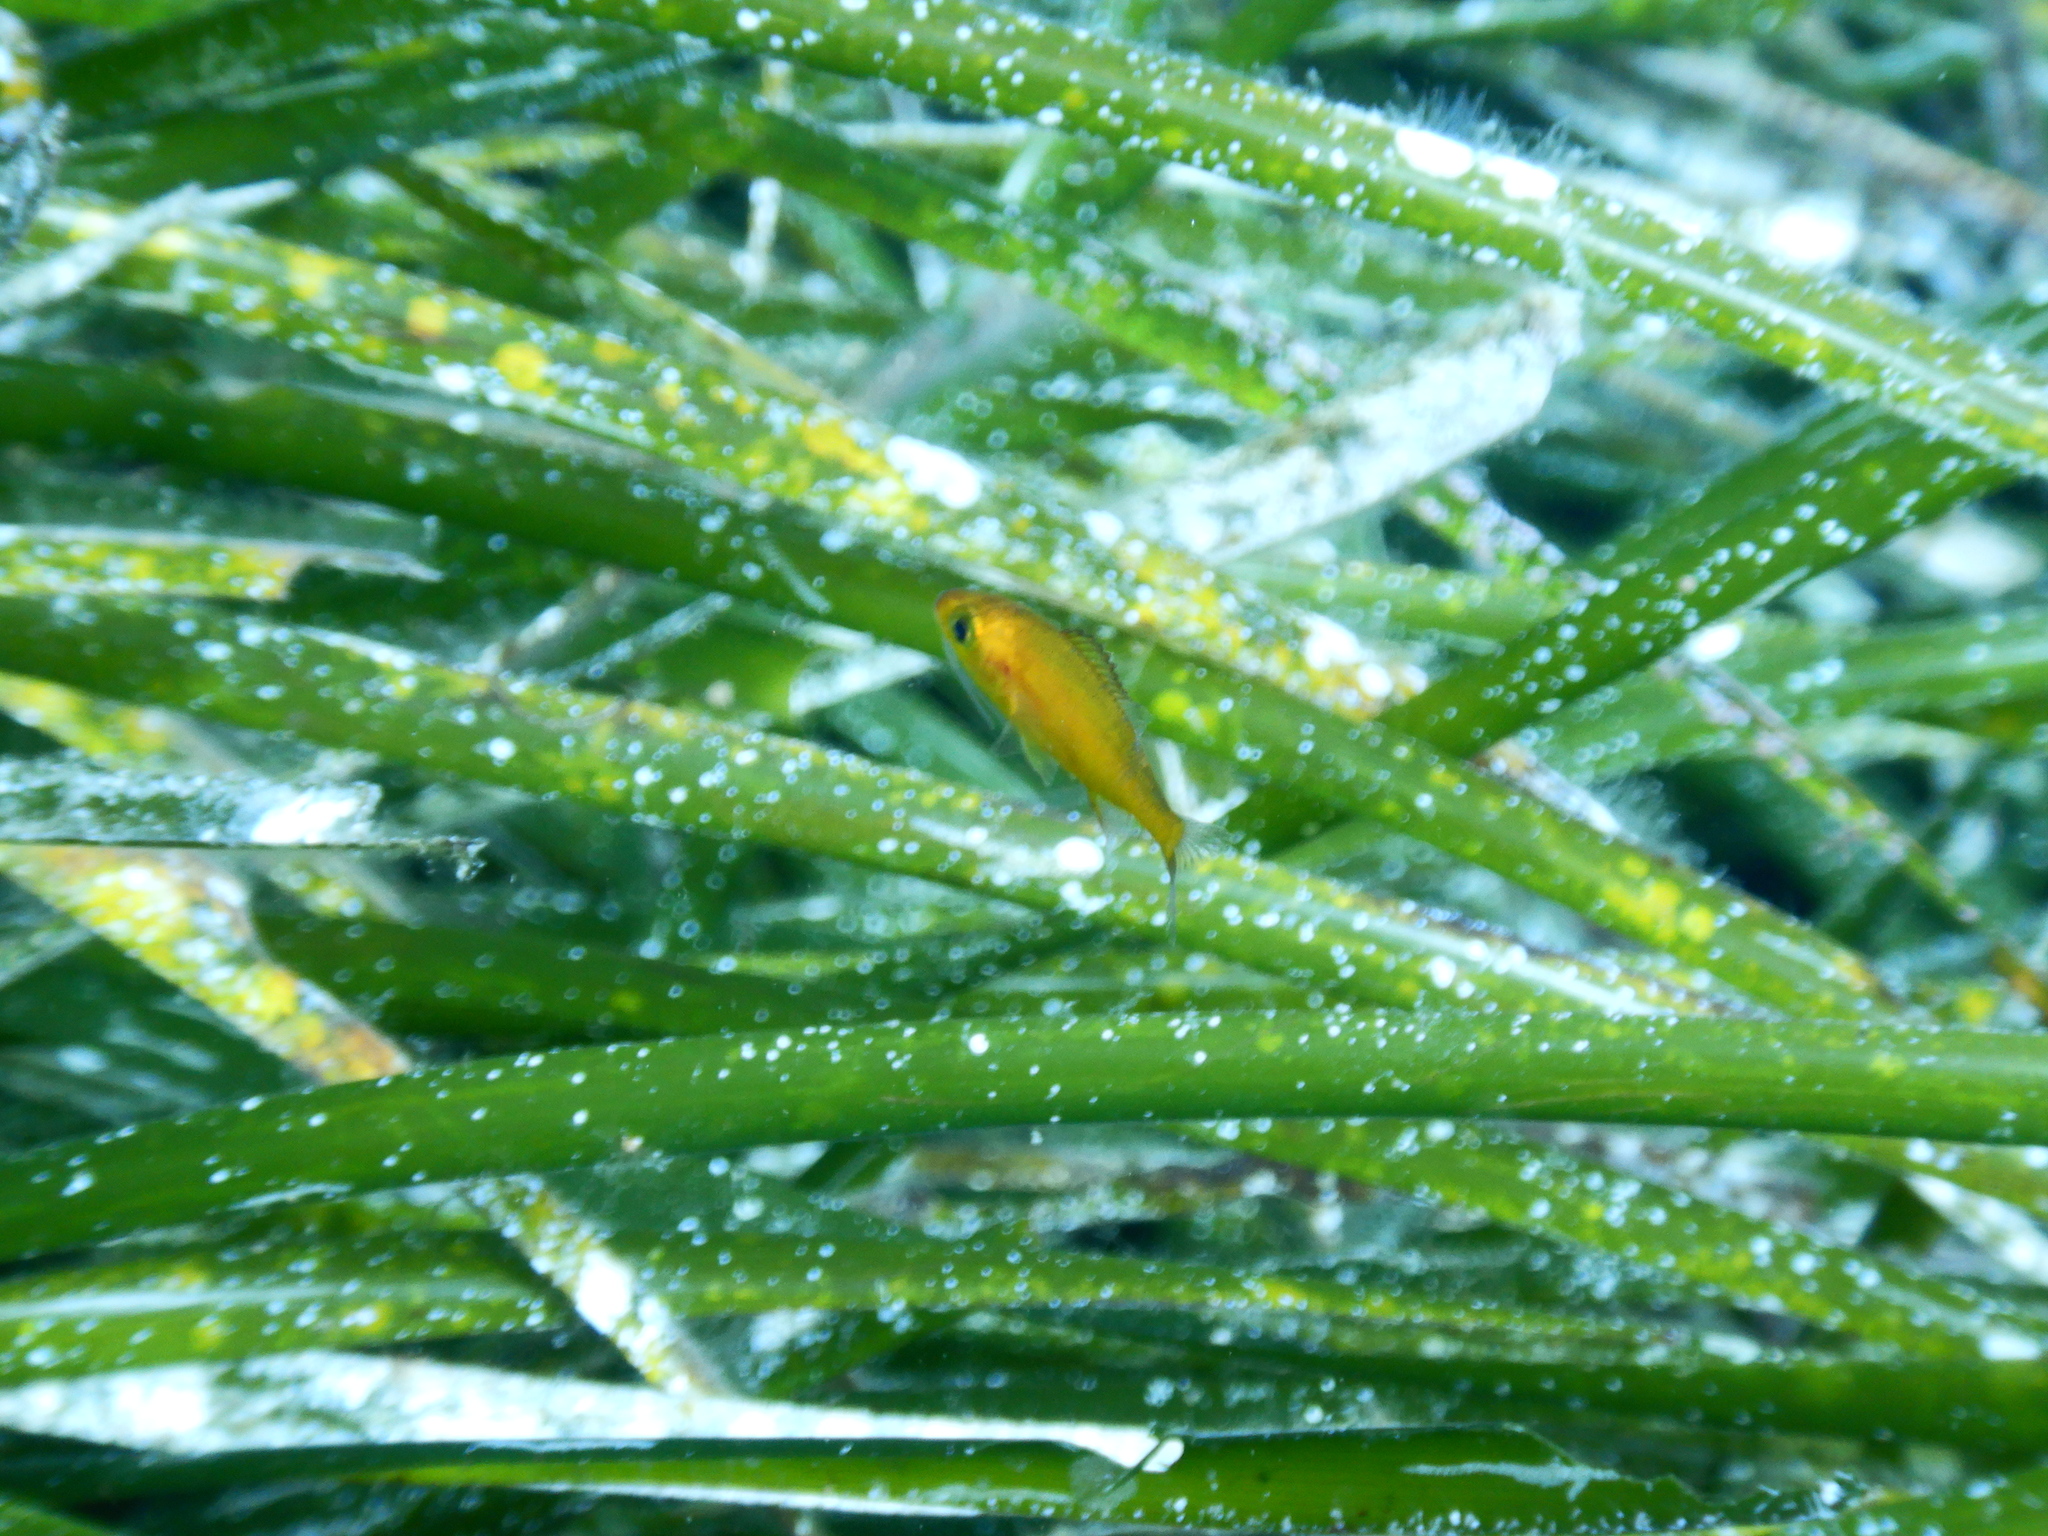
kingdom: Animalia
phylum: Chordata
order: Perciformes
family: Sparidae
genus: Spondyliosoma
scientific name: Spondyliosoma cantharus
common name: Black seabream
